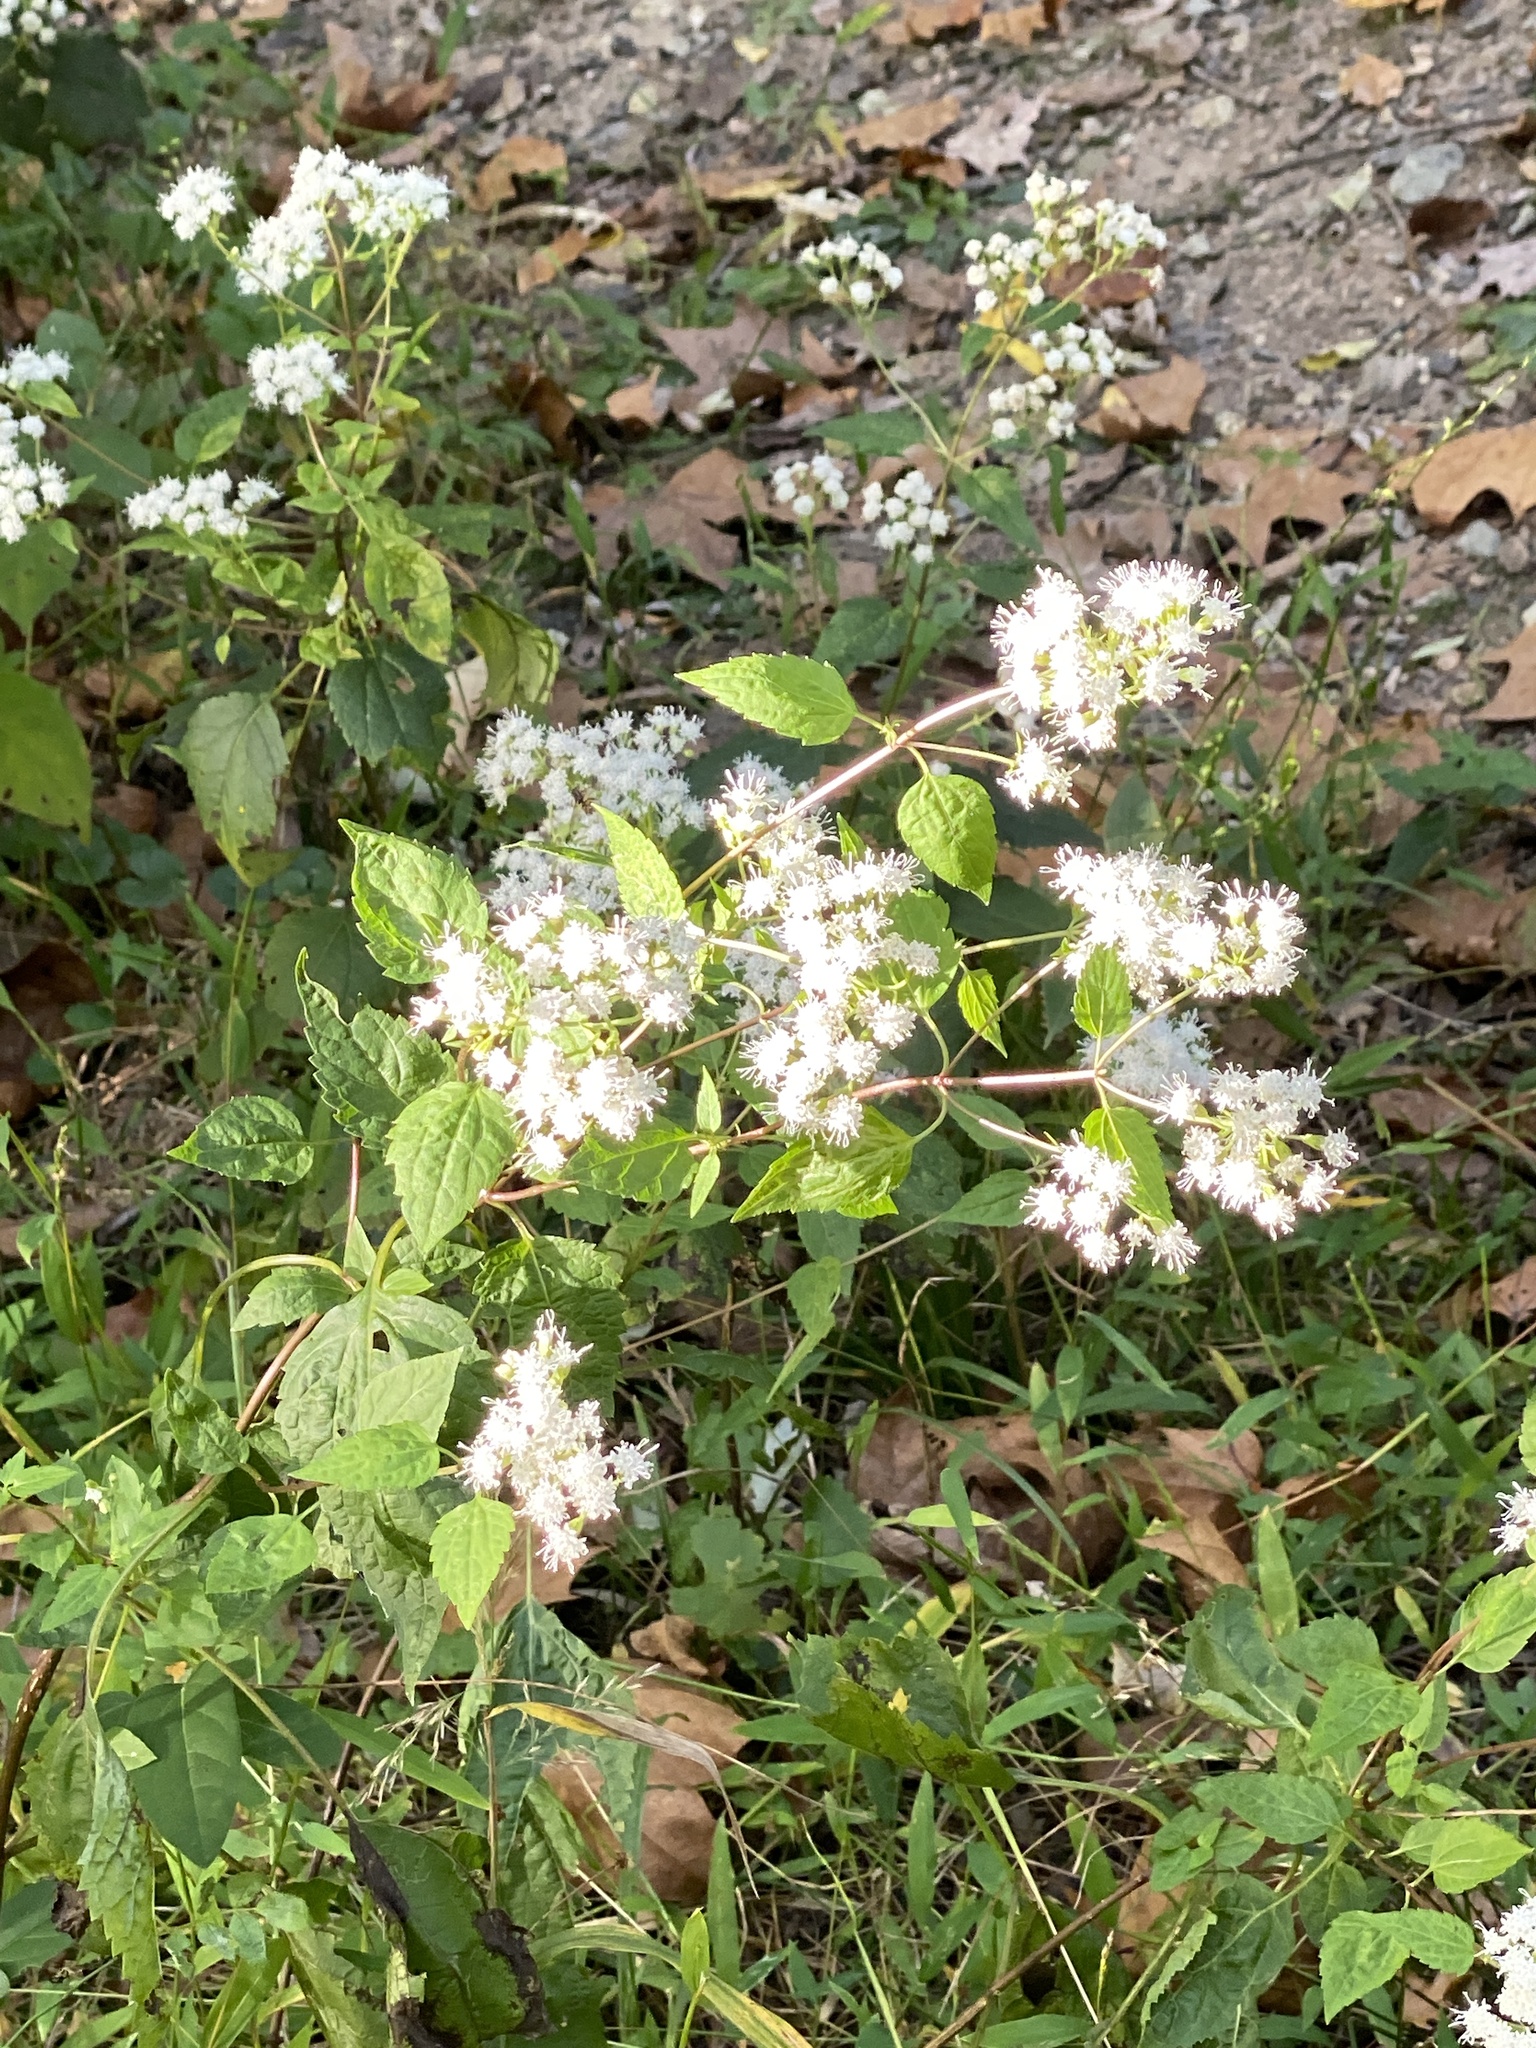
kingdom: Plantae
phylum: Tracheophyta
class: Magnoliopsida
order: Asterales
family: Asteraceae
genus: Ageratina
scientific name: Ageratina altissima
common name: White snakeroot
